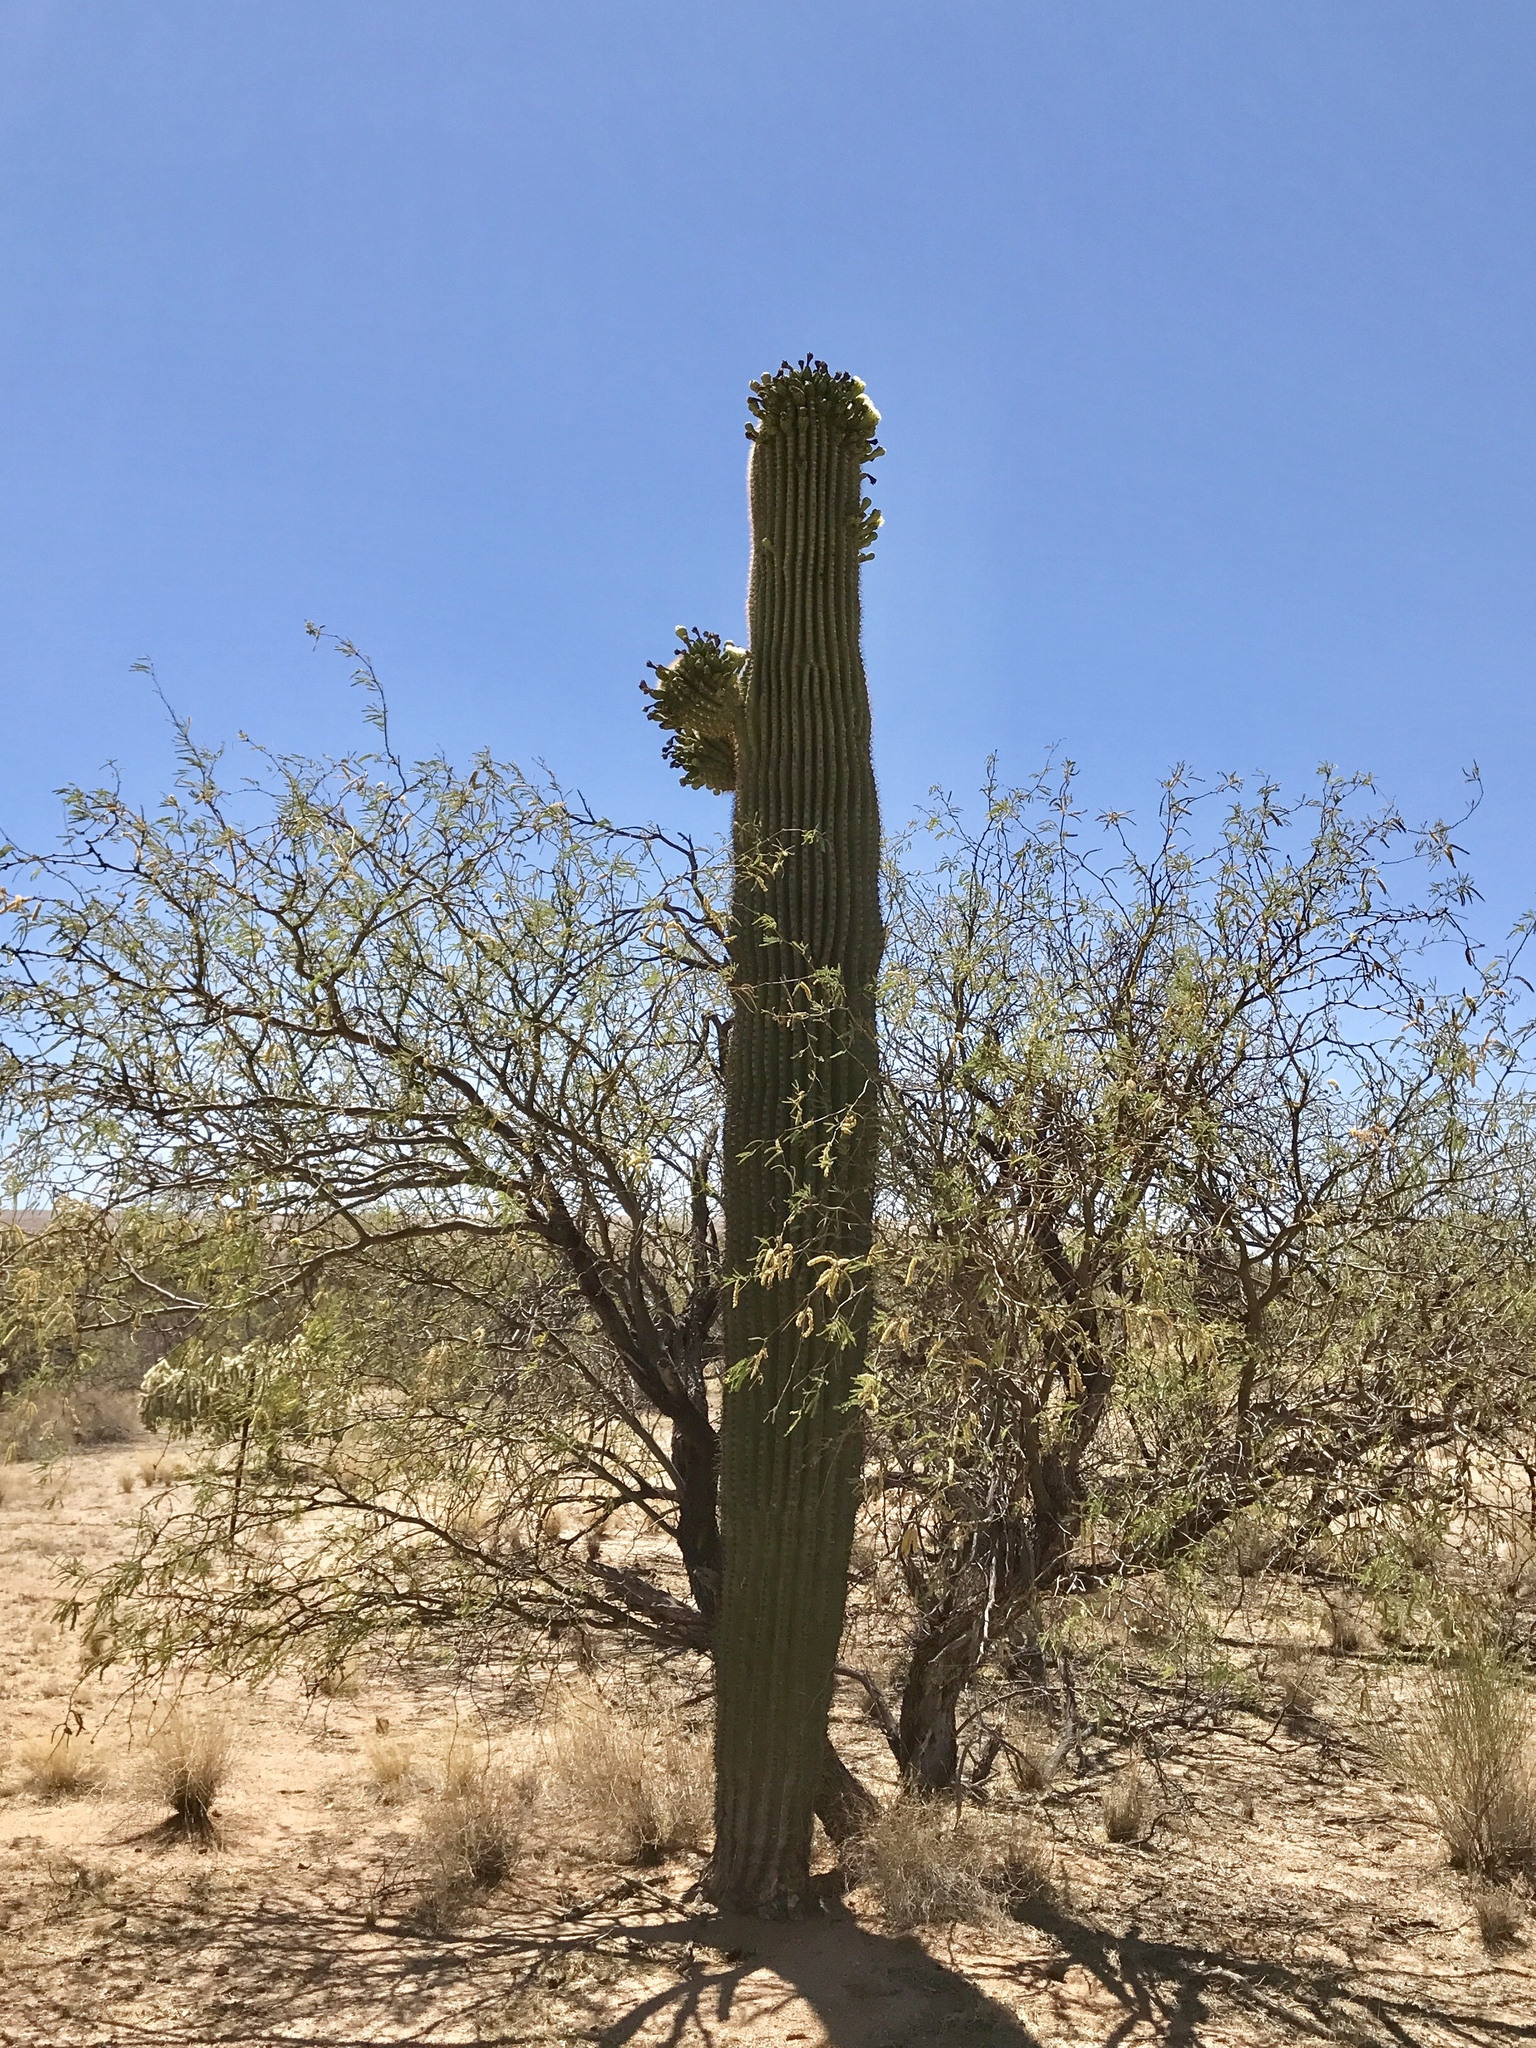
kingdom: Plantae
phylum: Tracheophyta
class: Magnoliopsida
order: Caryophyllales
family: Cactaceae
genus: Carnegiea
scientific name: Carnegiea gigantea
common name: Saguaro
